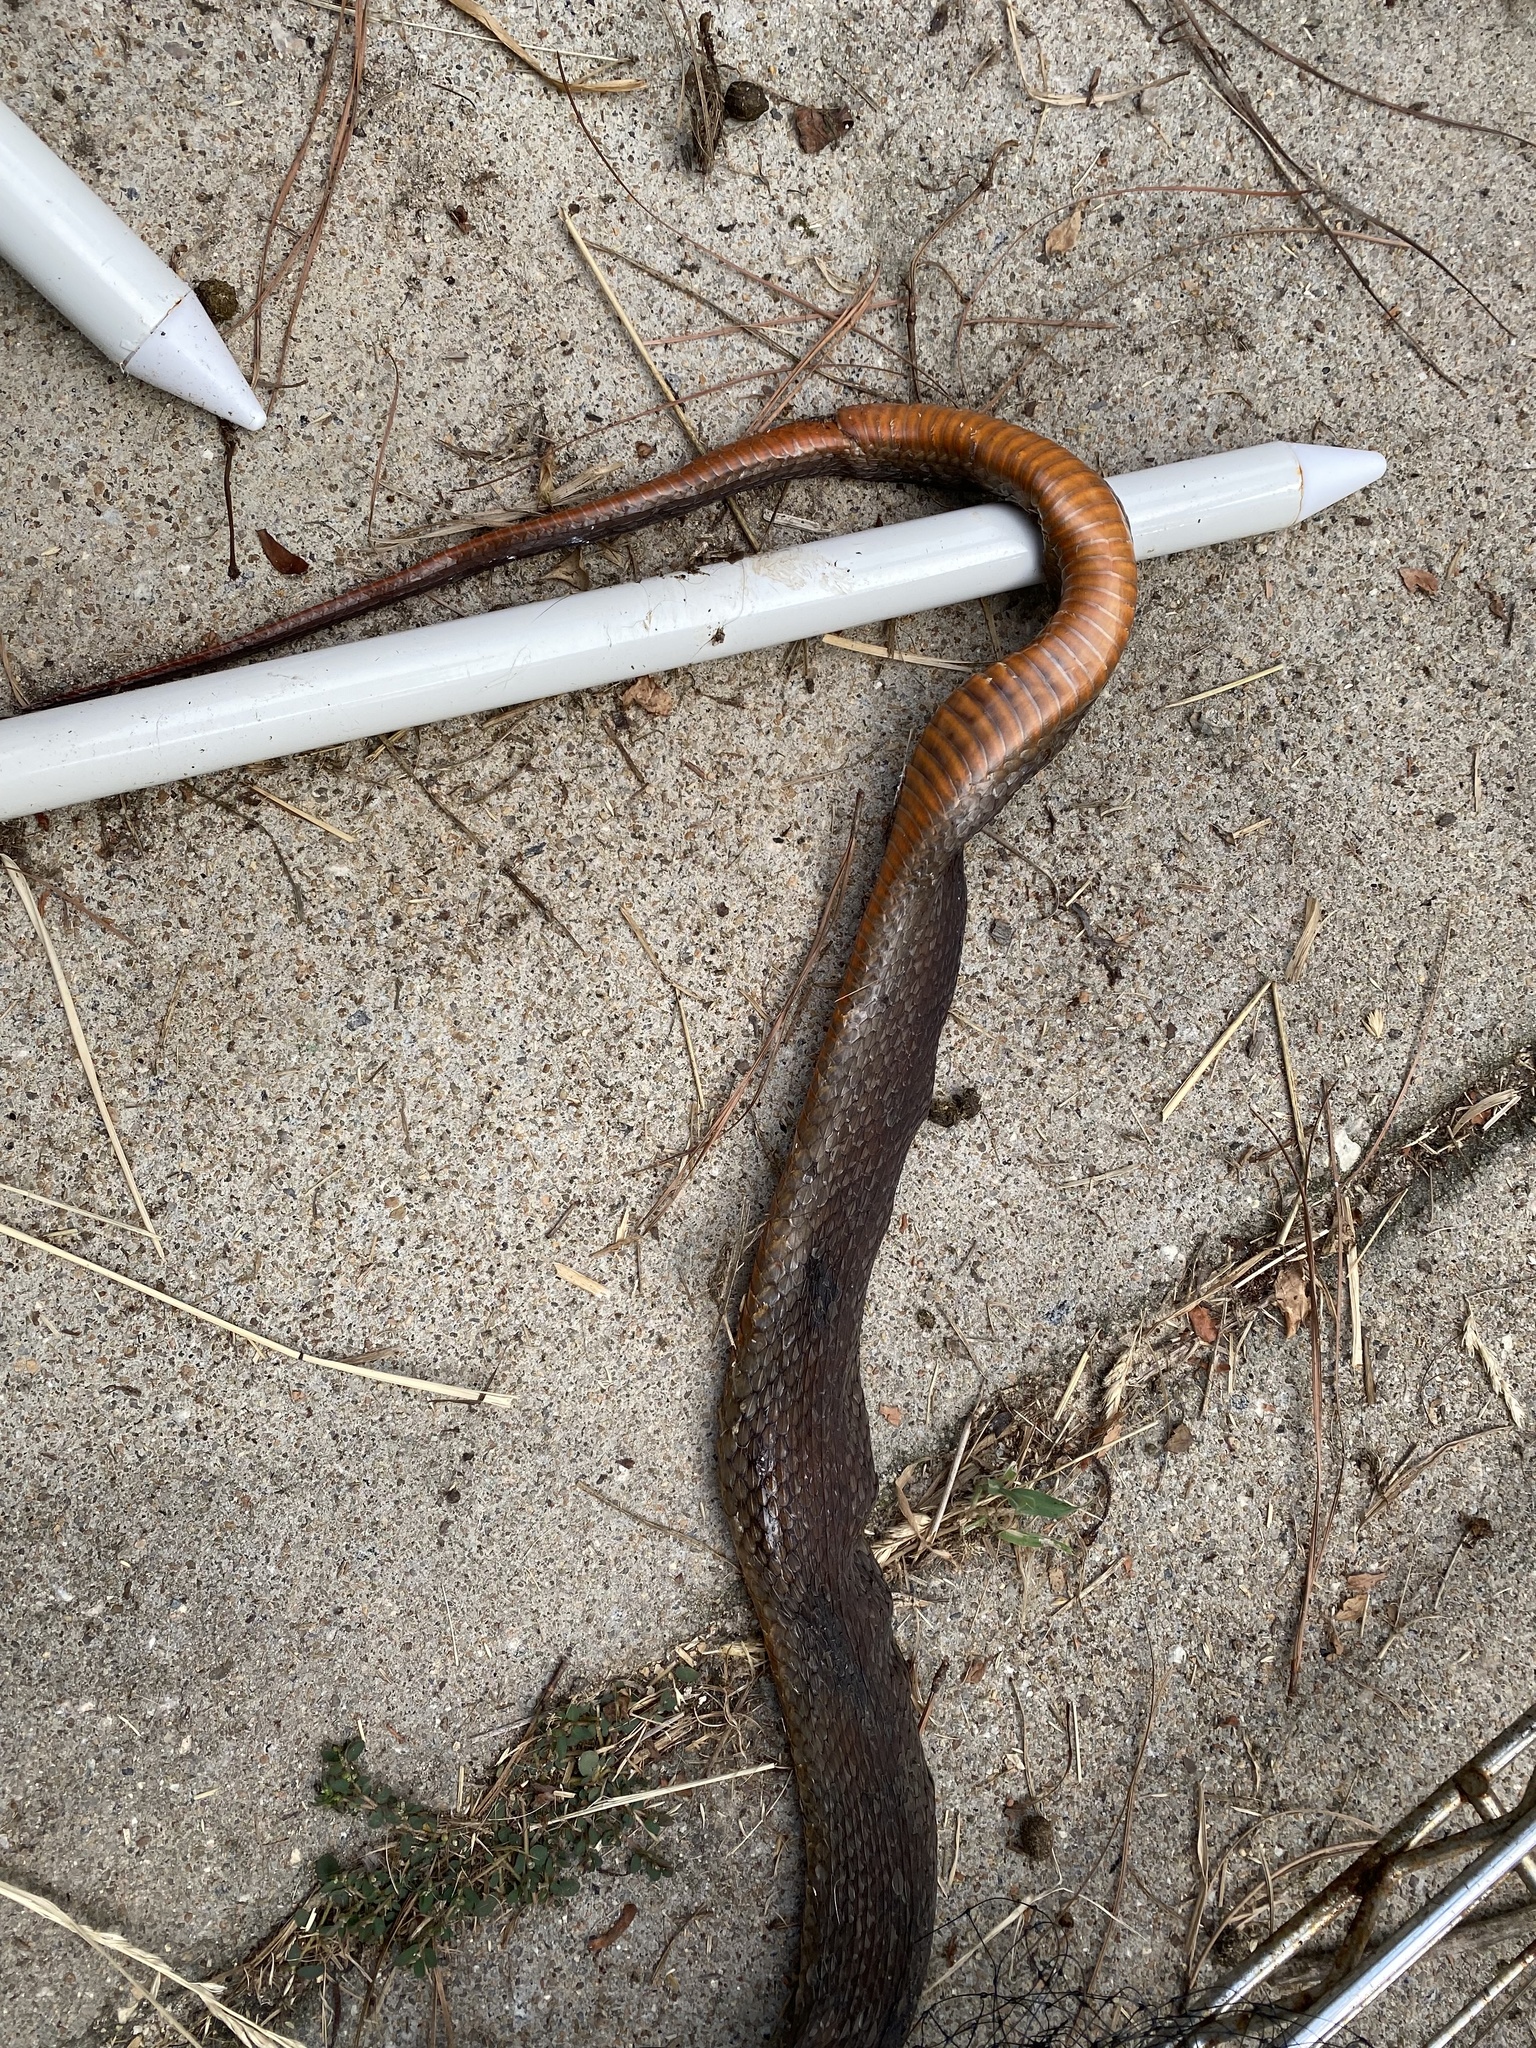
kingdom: Animalia
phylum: Chordata
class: Squamata
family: Colubridae
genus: Nerodia
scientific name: Nerodia erythrogaster
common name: Plainbelly water snake
